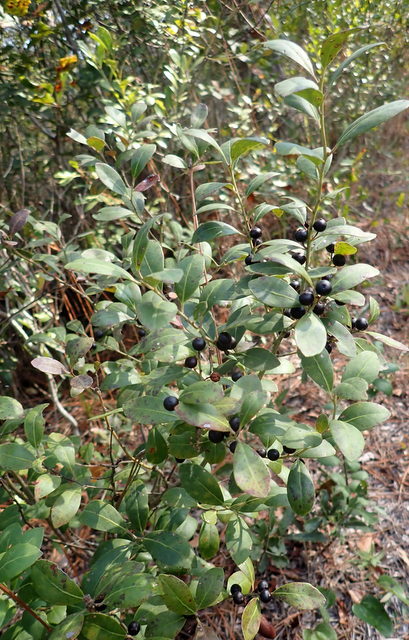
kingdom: Plantae
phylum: Tracheophyta
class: Magnoliopsida
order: Aquifoliales
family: Aquifoliaceae
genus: Ilex
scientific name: Ilex glabra
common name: Bitter gallberry
